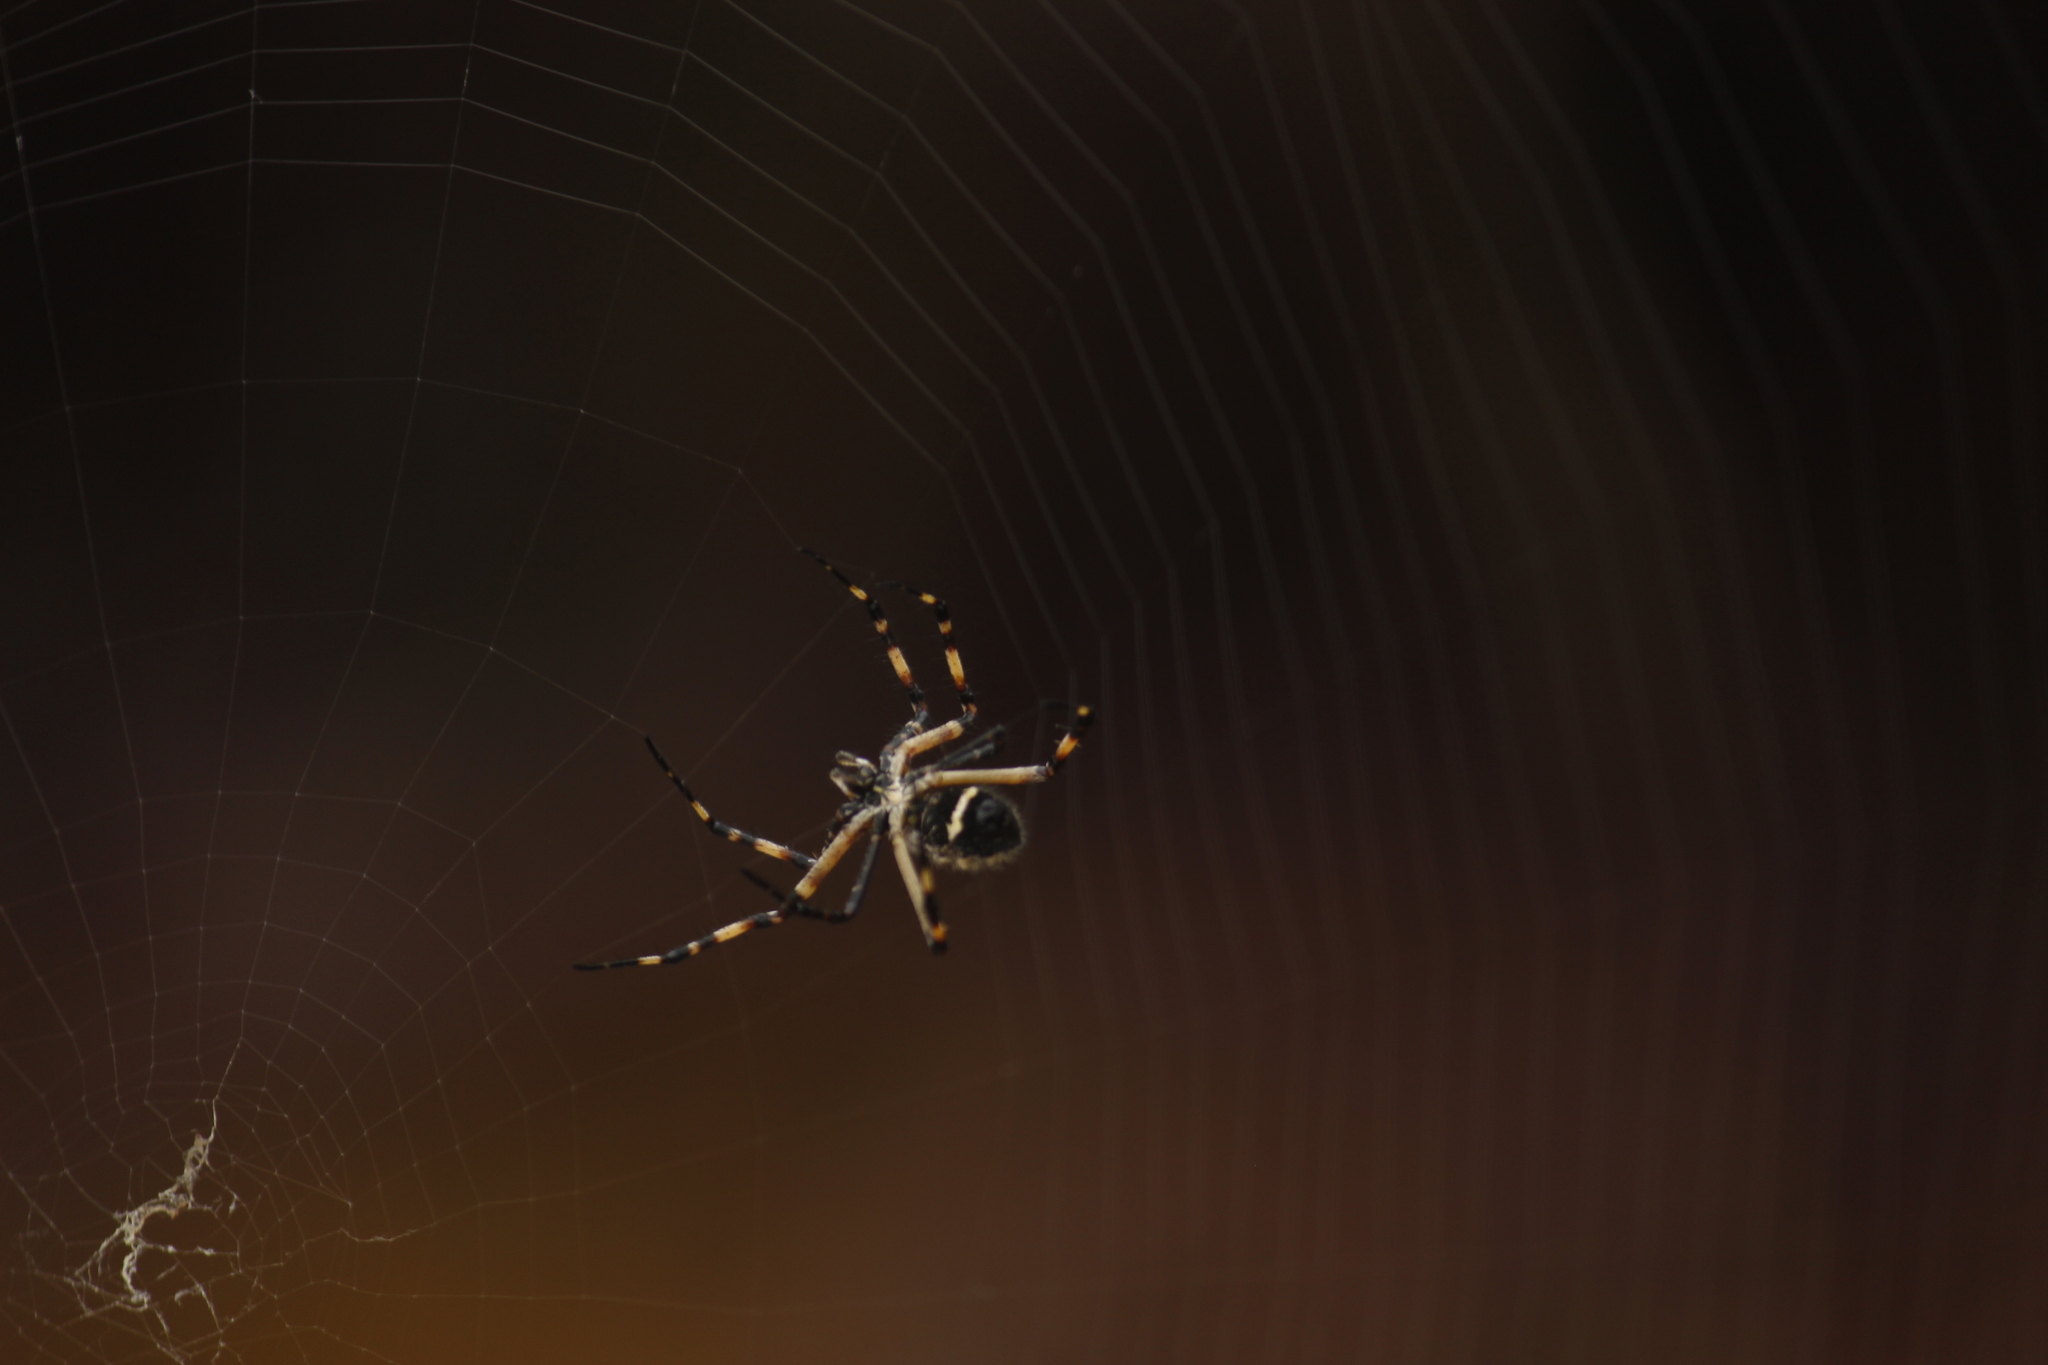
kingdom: Animalia
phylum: Arthropoda
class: Arachnida
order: Araneae
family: Araneidae
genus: Argiope
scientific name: Argiope argentata
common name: Orb weavers
